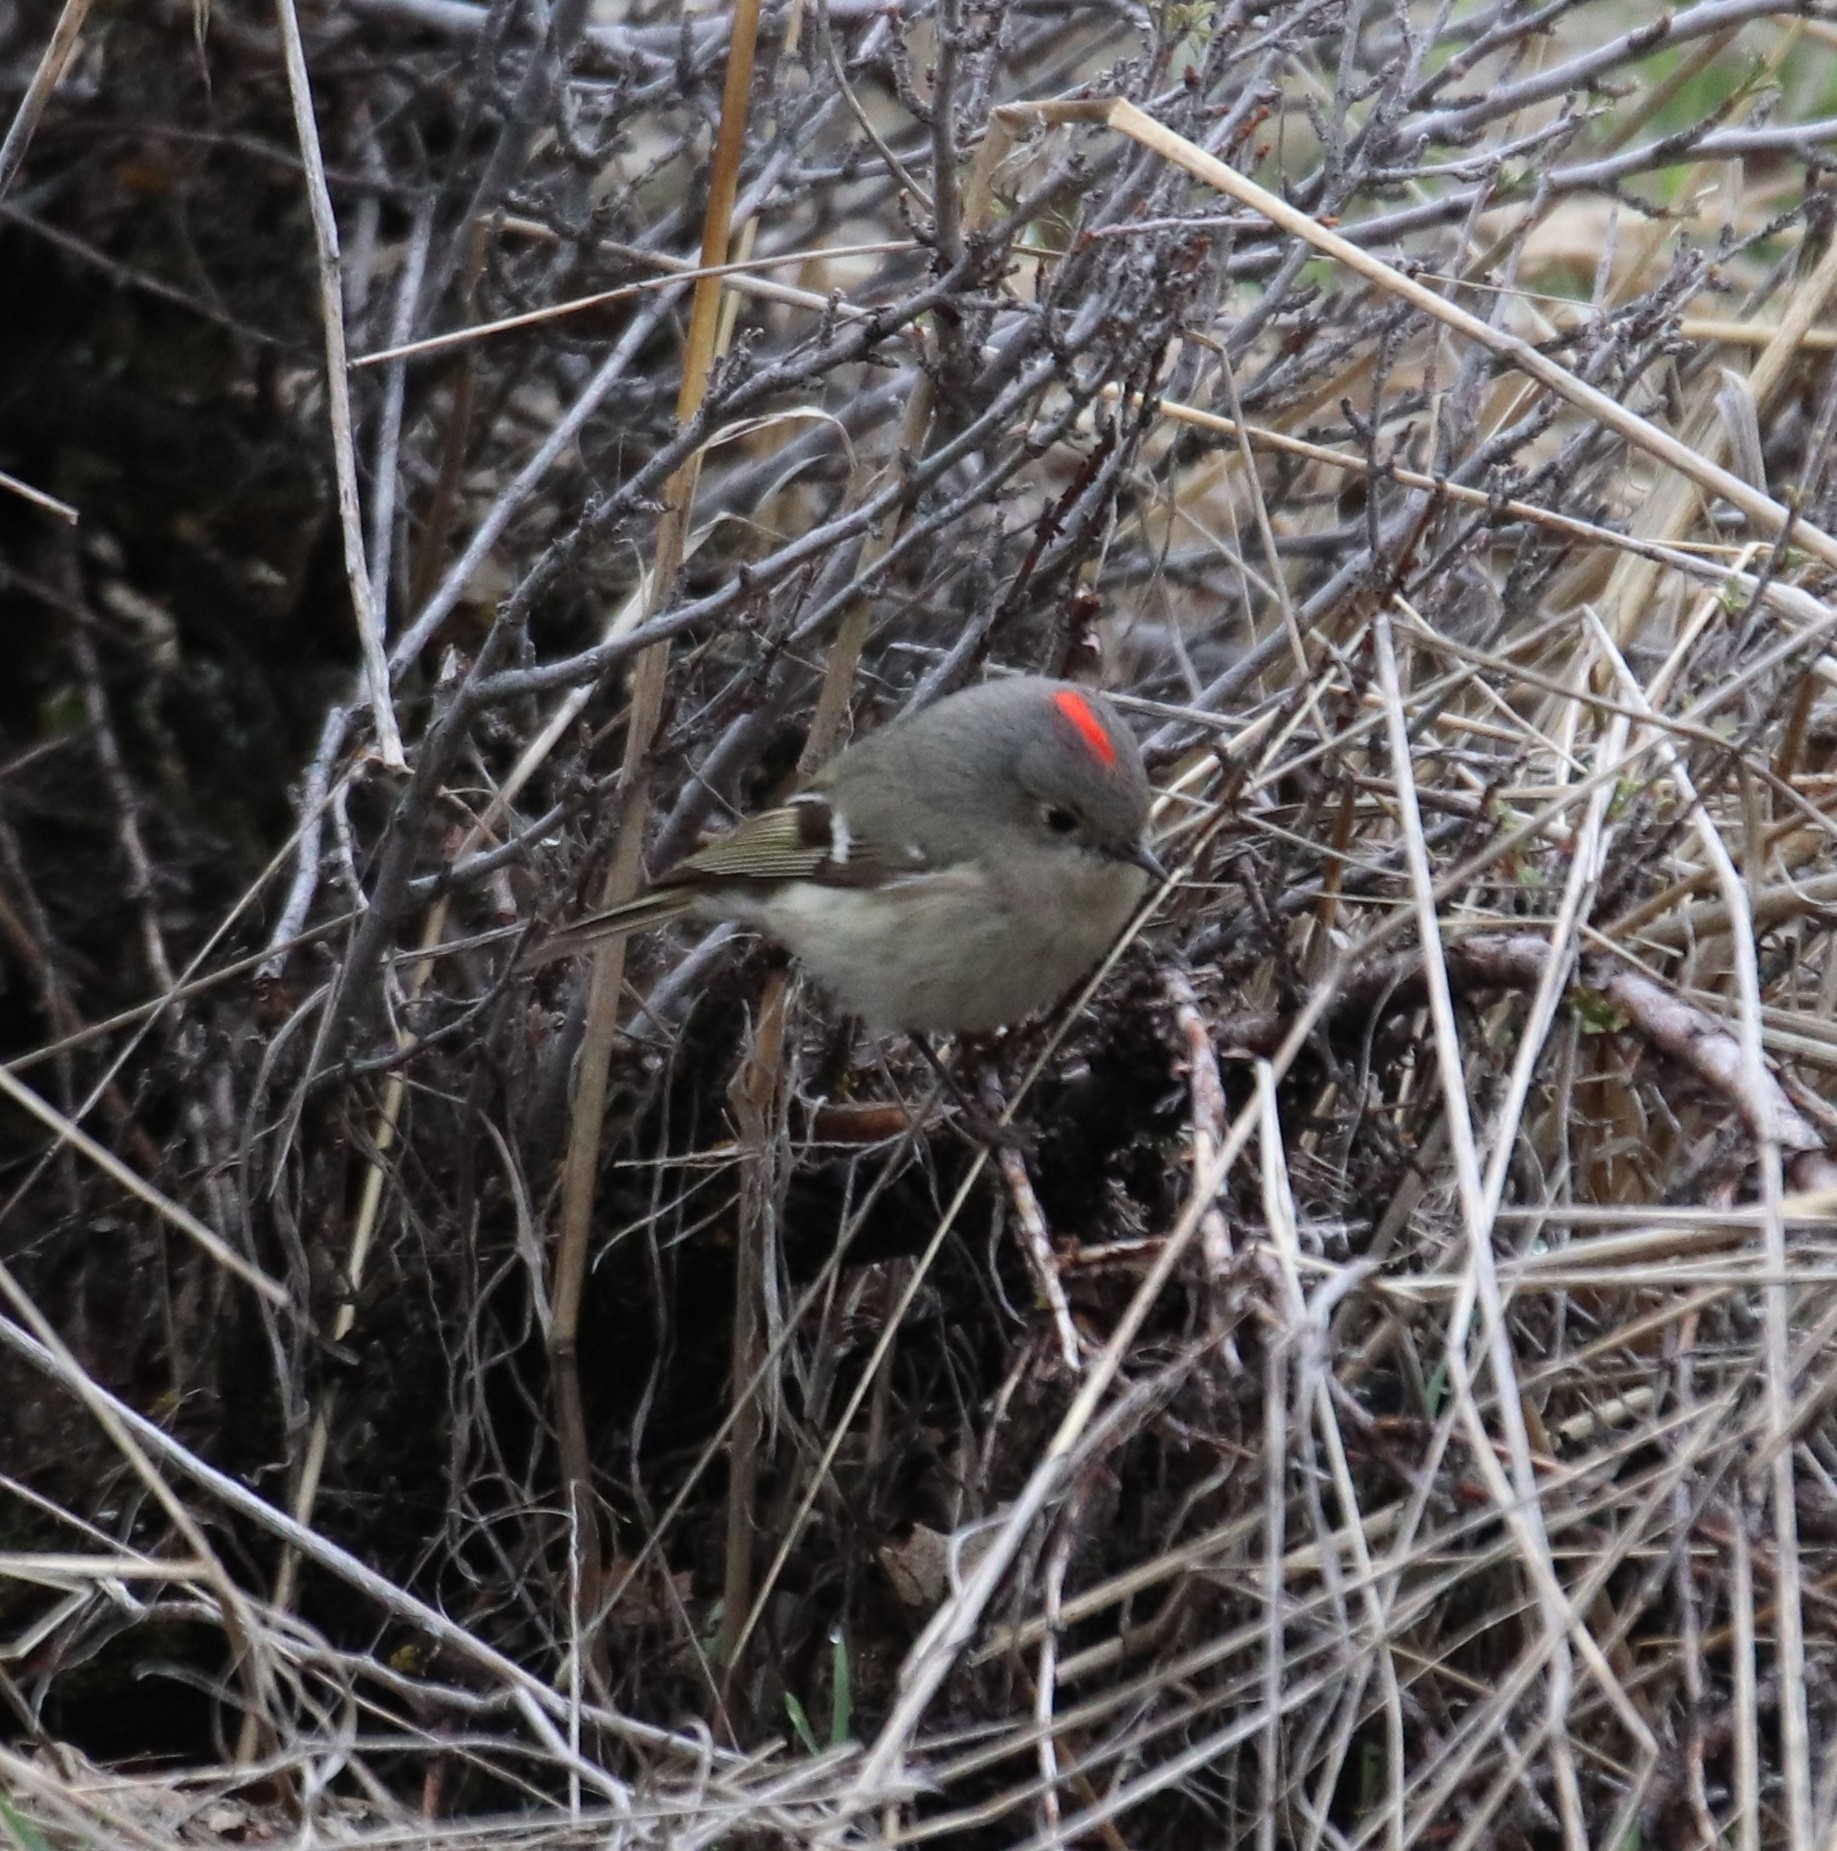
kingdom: Animalia
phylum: Chordata
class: Aves
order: Passeriformes
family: Regulidae
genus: Regulus
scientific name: Regulus calendula
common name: Ruby-crowned kinglet
